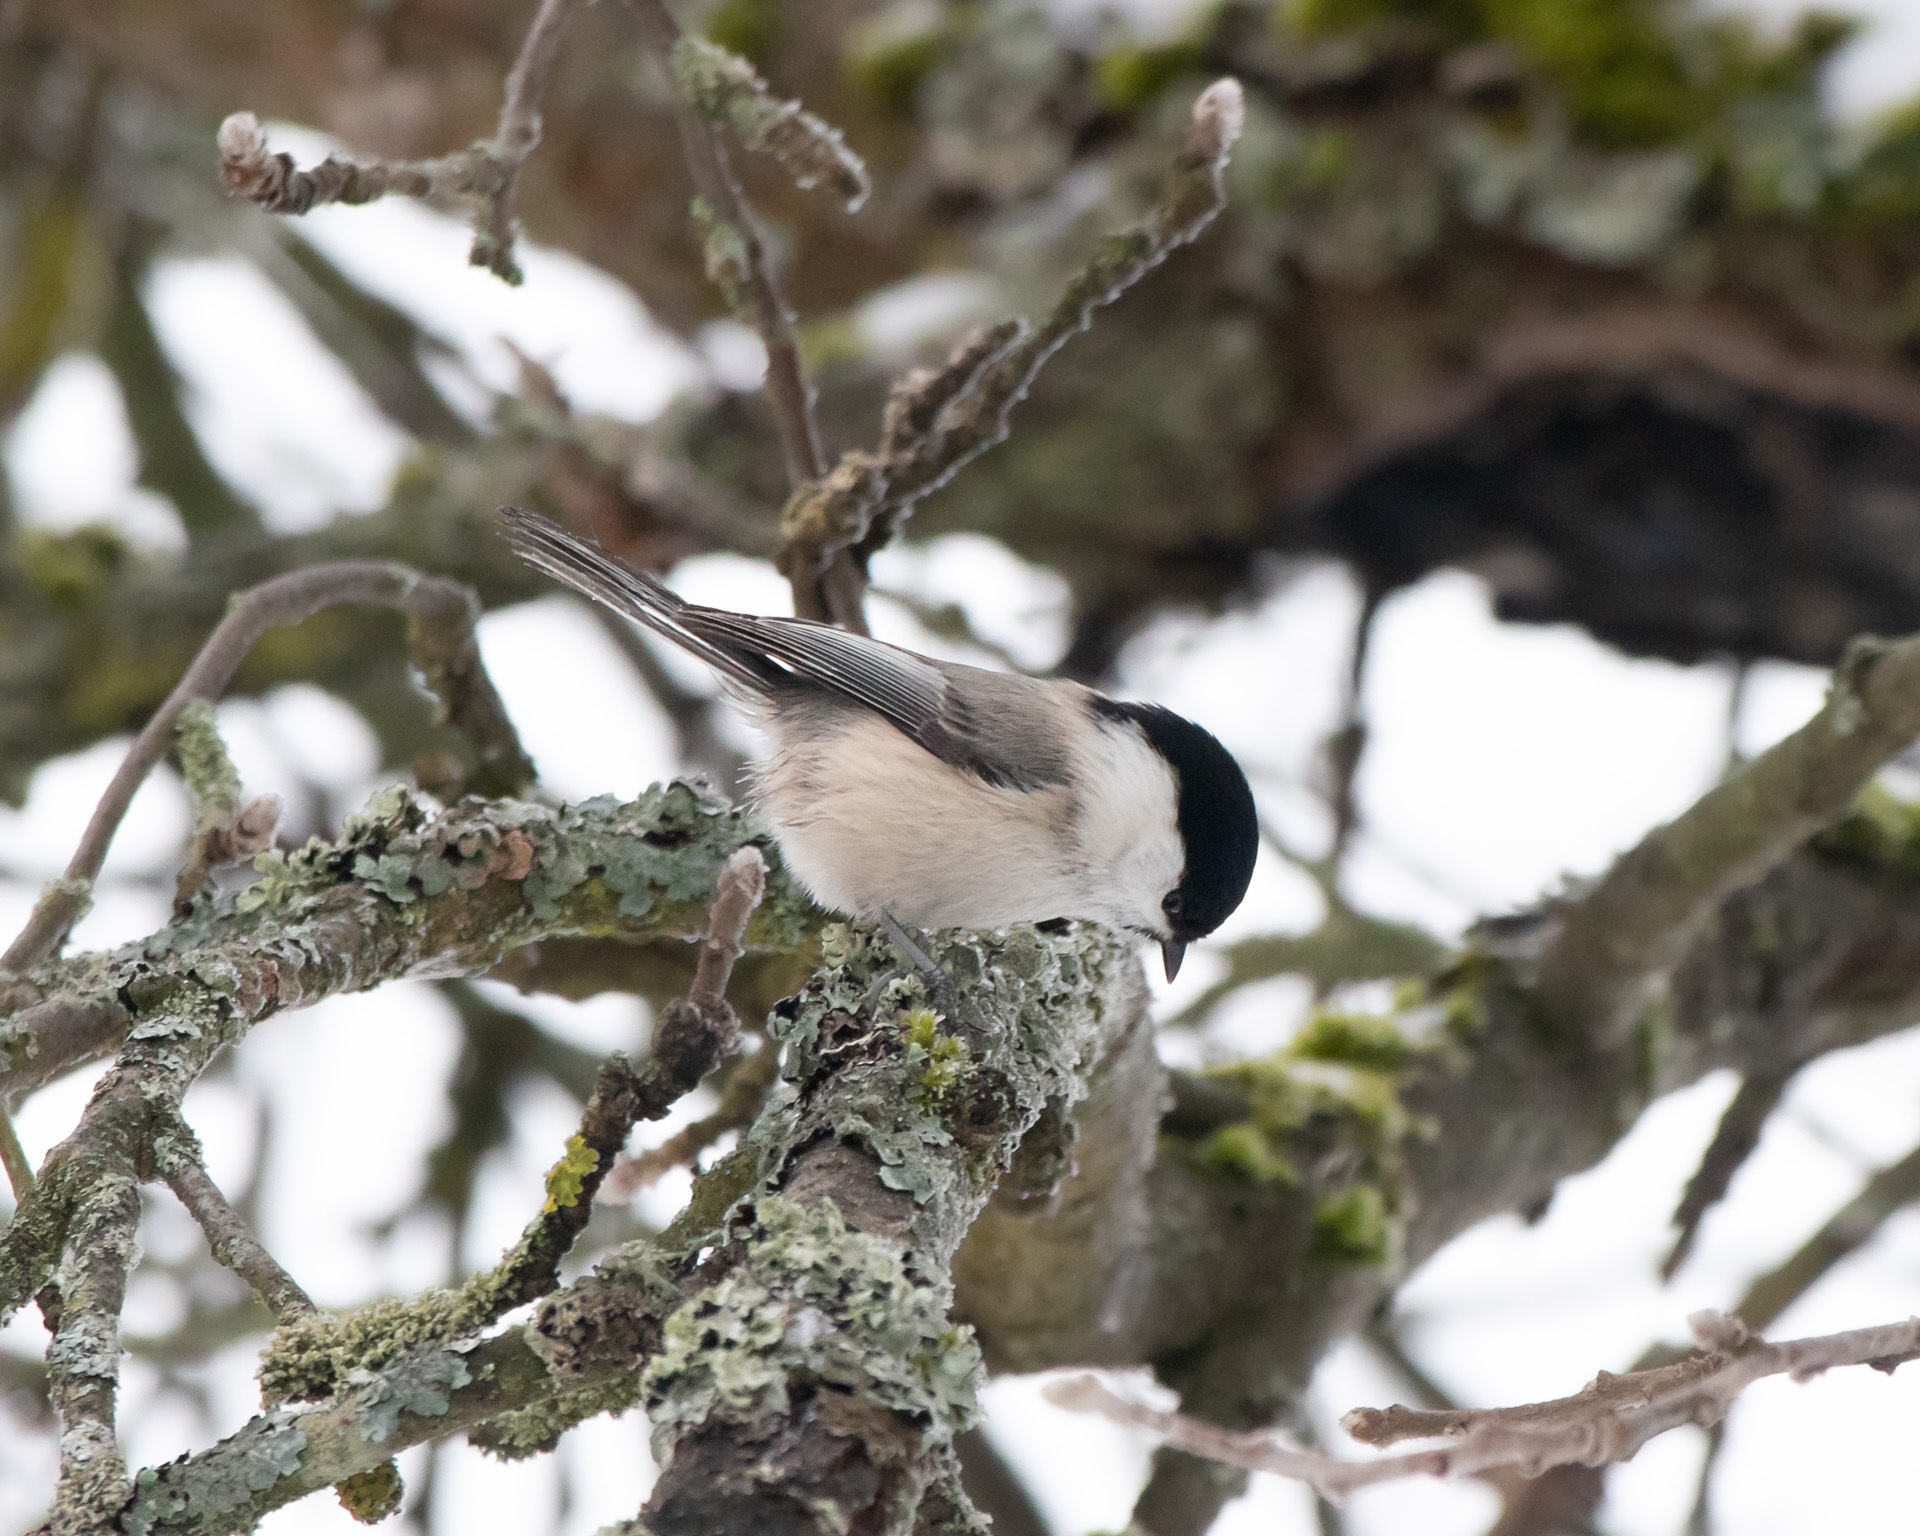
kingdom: Animalia
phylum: Chordata
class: Aves
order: Passeriformes
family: Paridae
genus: Poecile
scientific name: Poecile montanus
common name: Willow tit
